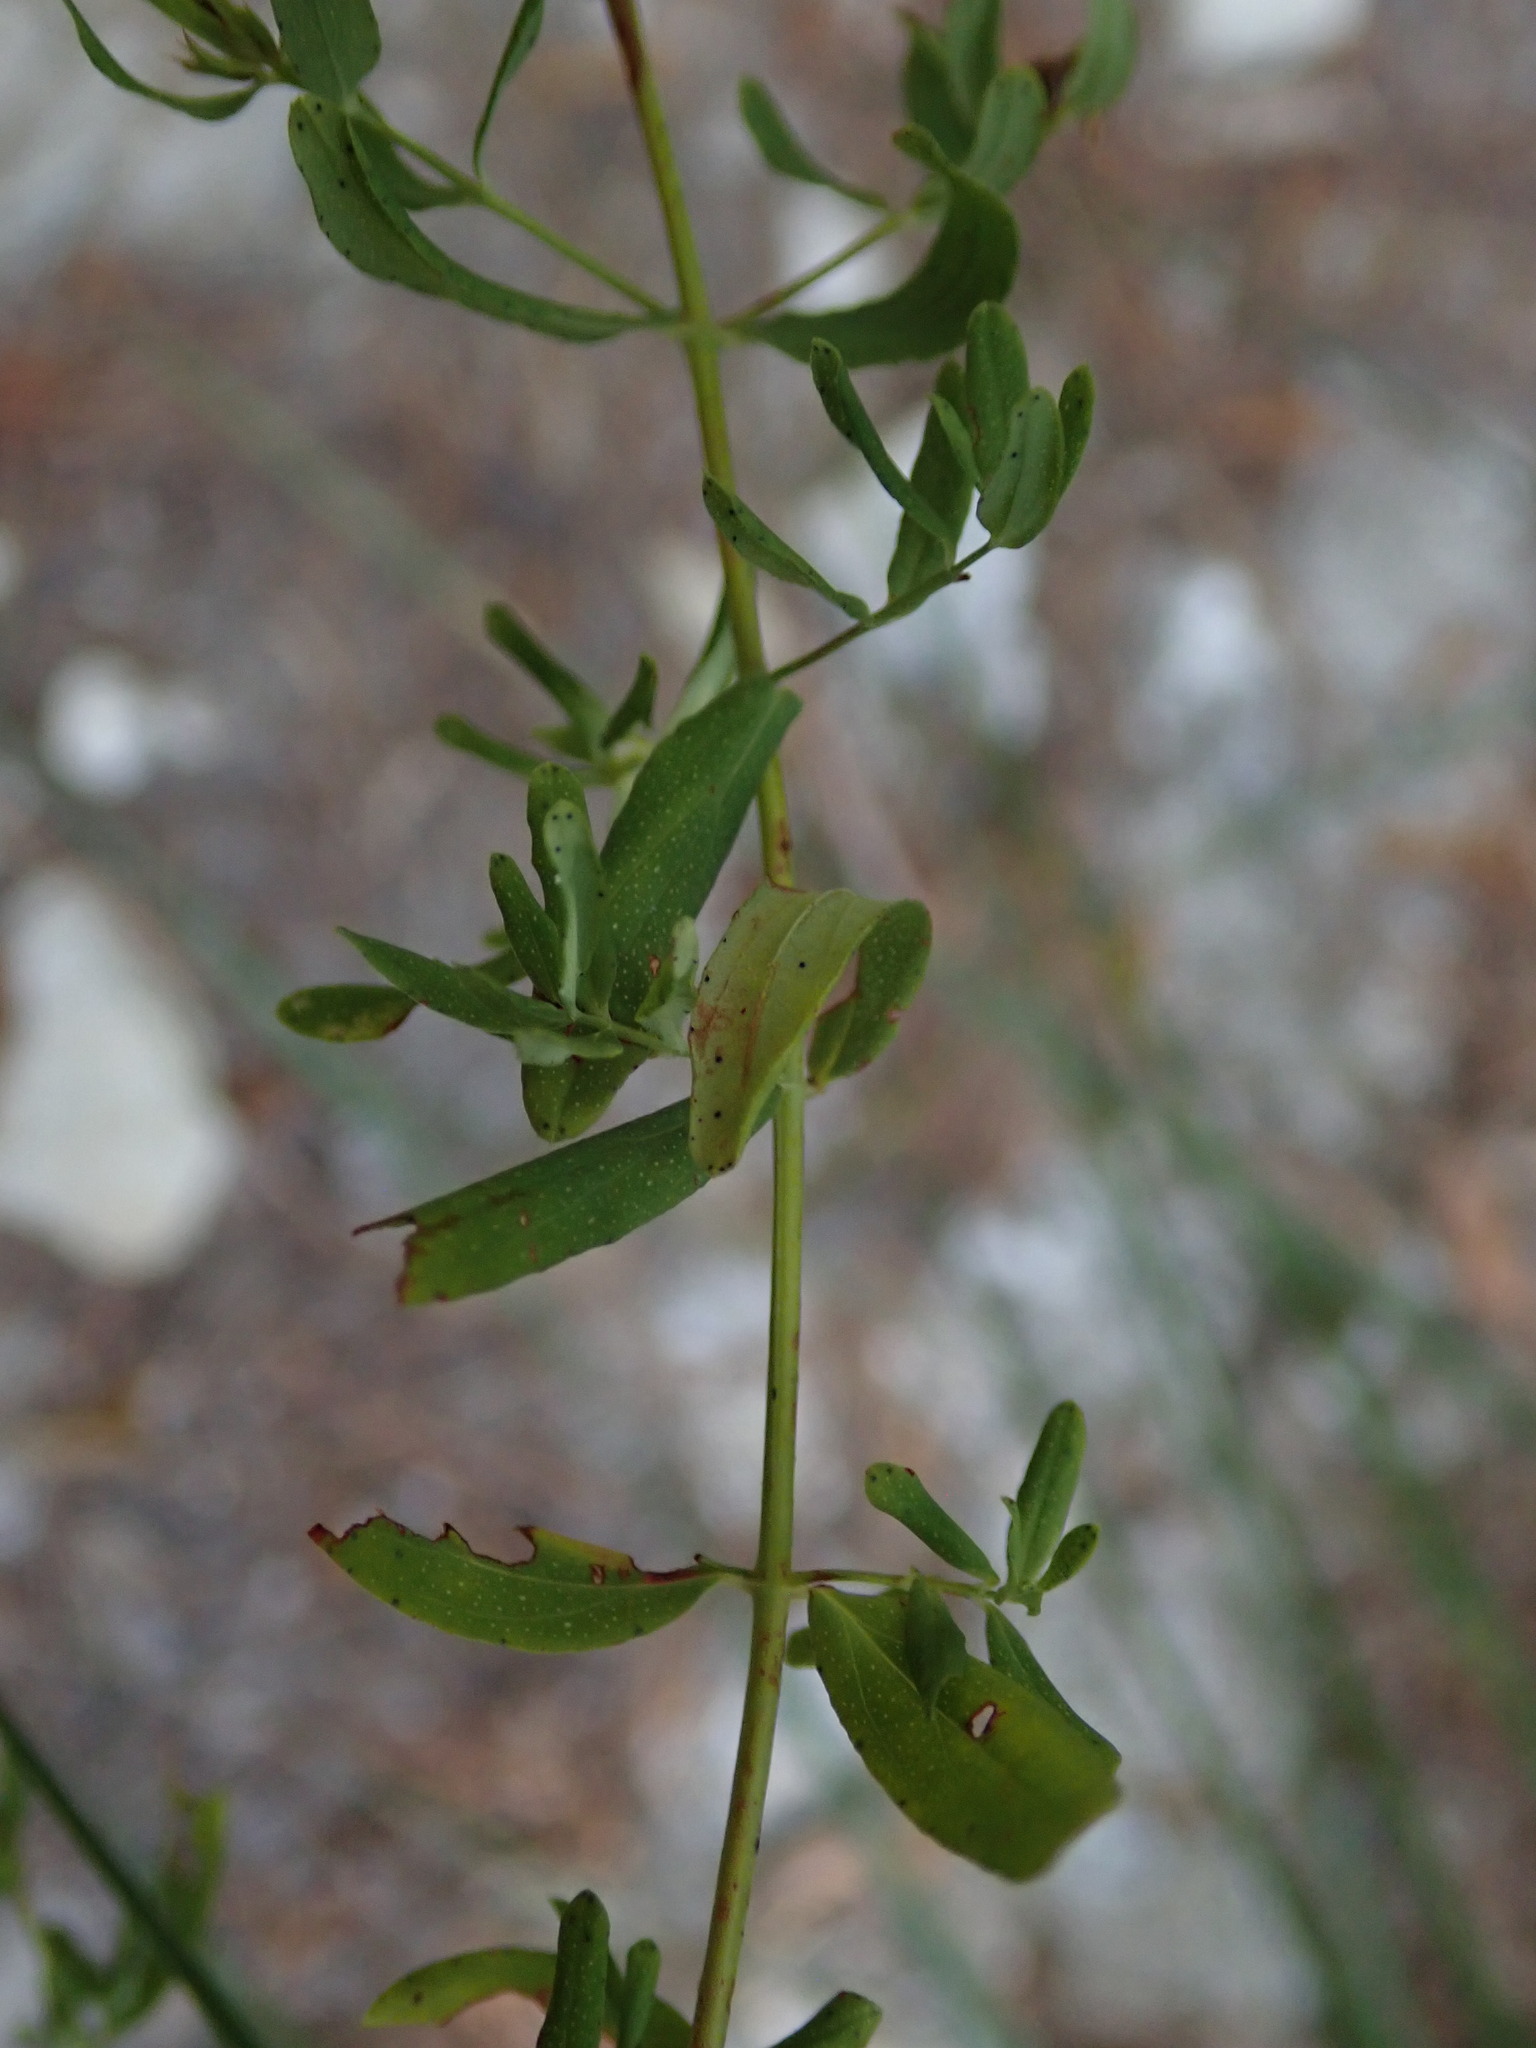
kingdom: Plantae
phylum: Tracheophyta
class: Magnoliopsida
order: Malpighiales
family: Hypericaceae
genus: Hypericum
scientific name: Hypericum perforatum
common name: Common st. johnswort
